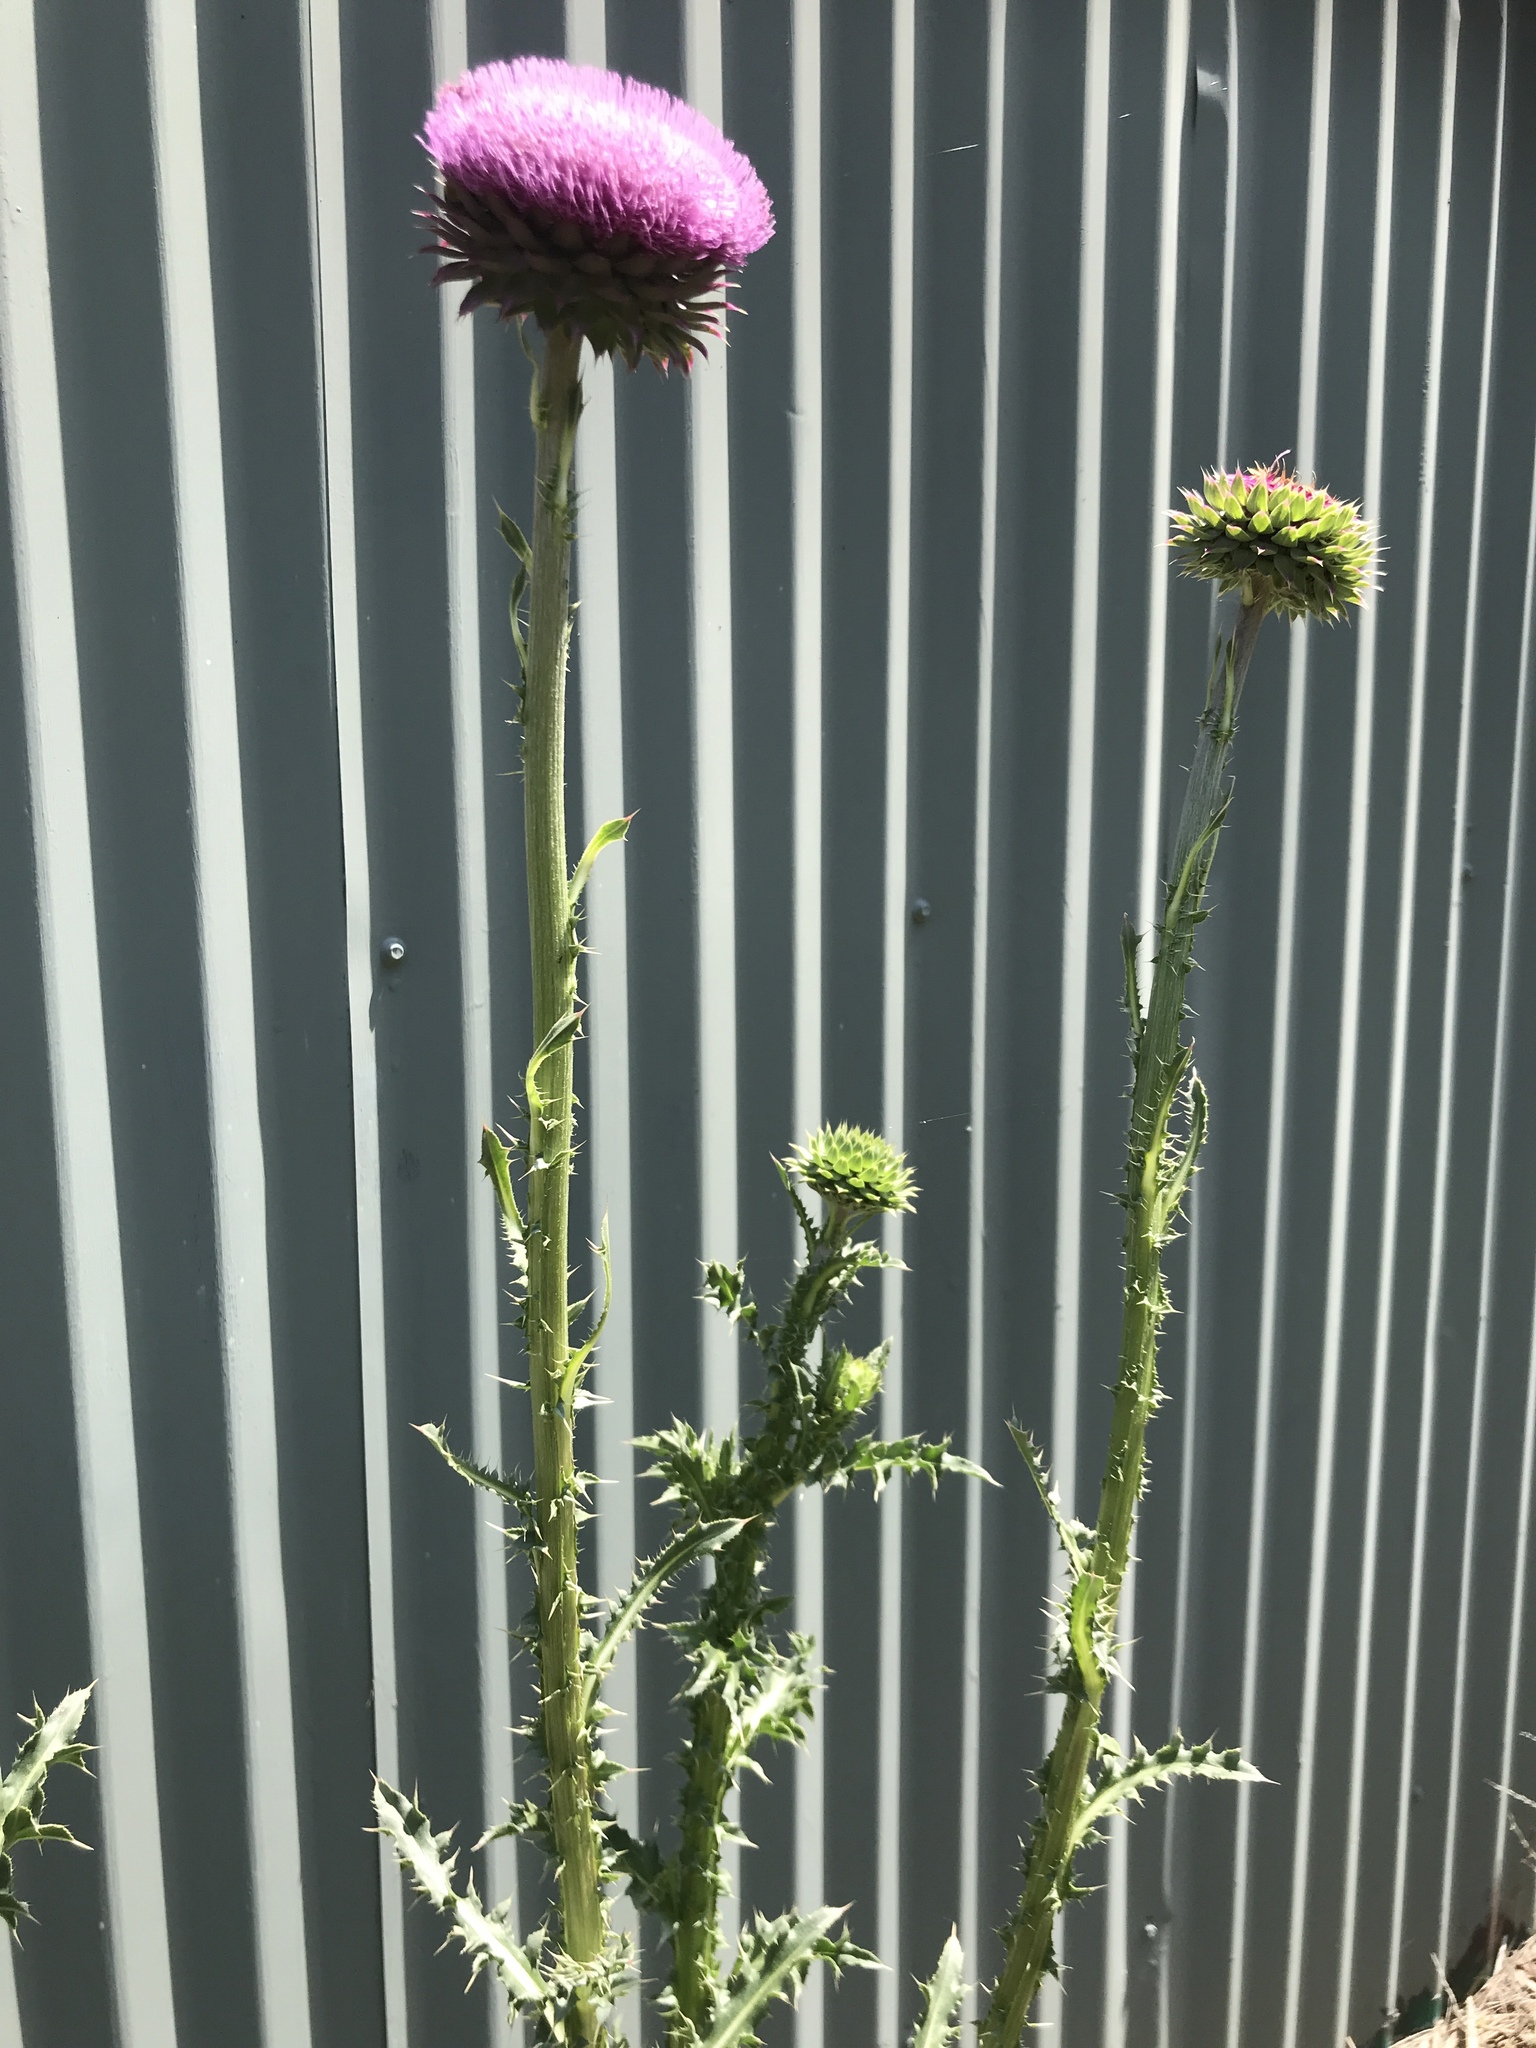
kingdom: Plantae
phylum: Tracheophyta
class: Magnoliopsida
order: Asterales
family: Asteraceae
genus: Carduus
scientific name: Carduus nutans
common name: Musk thistle
